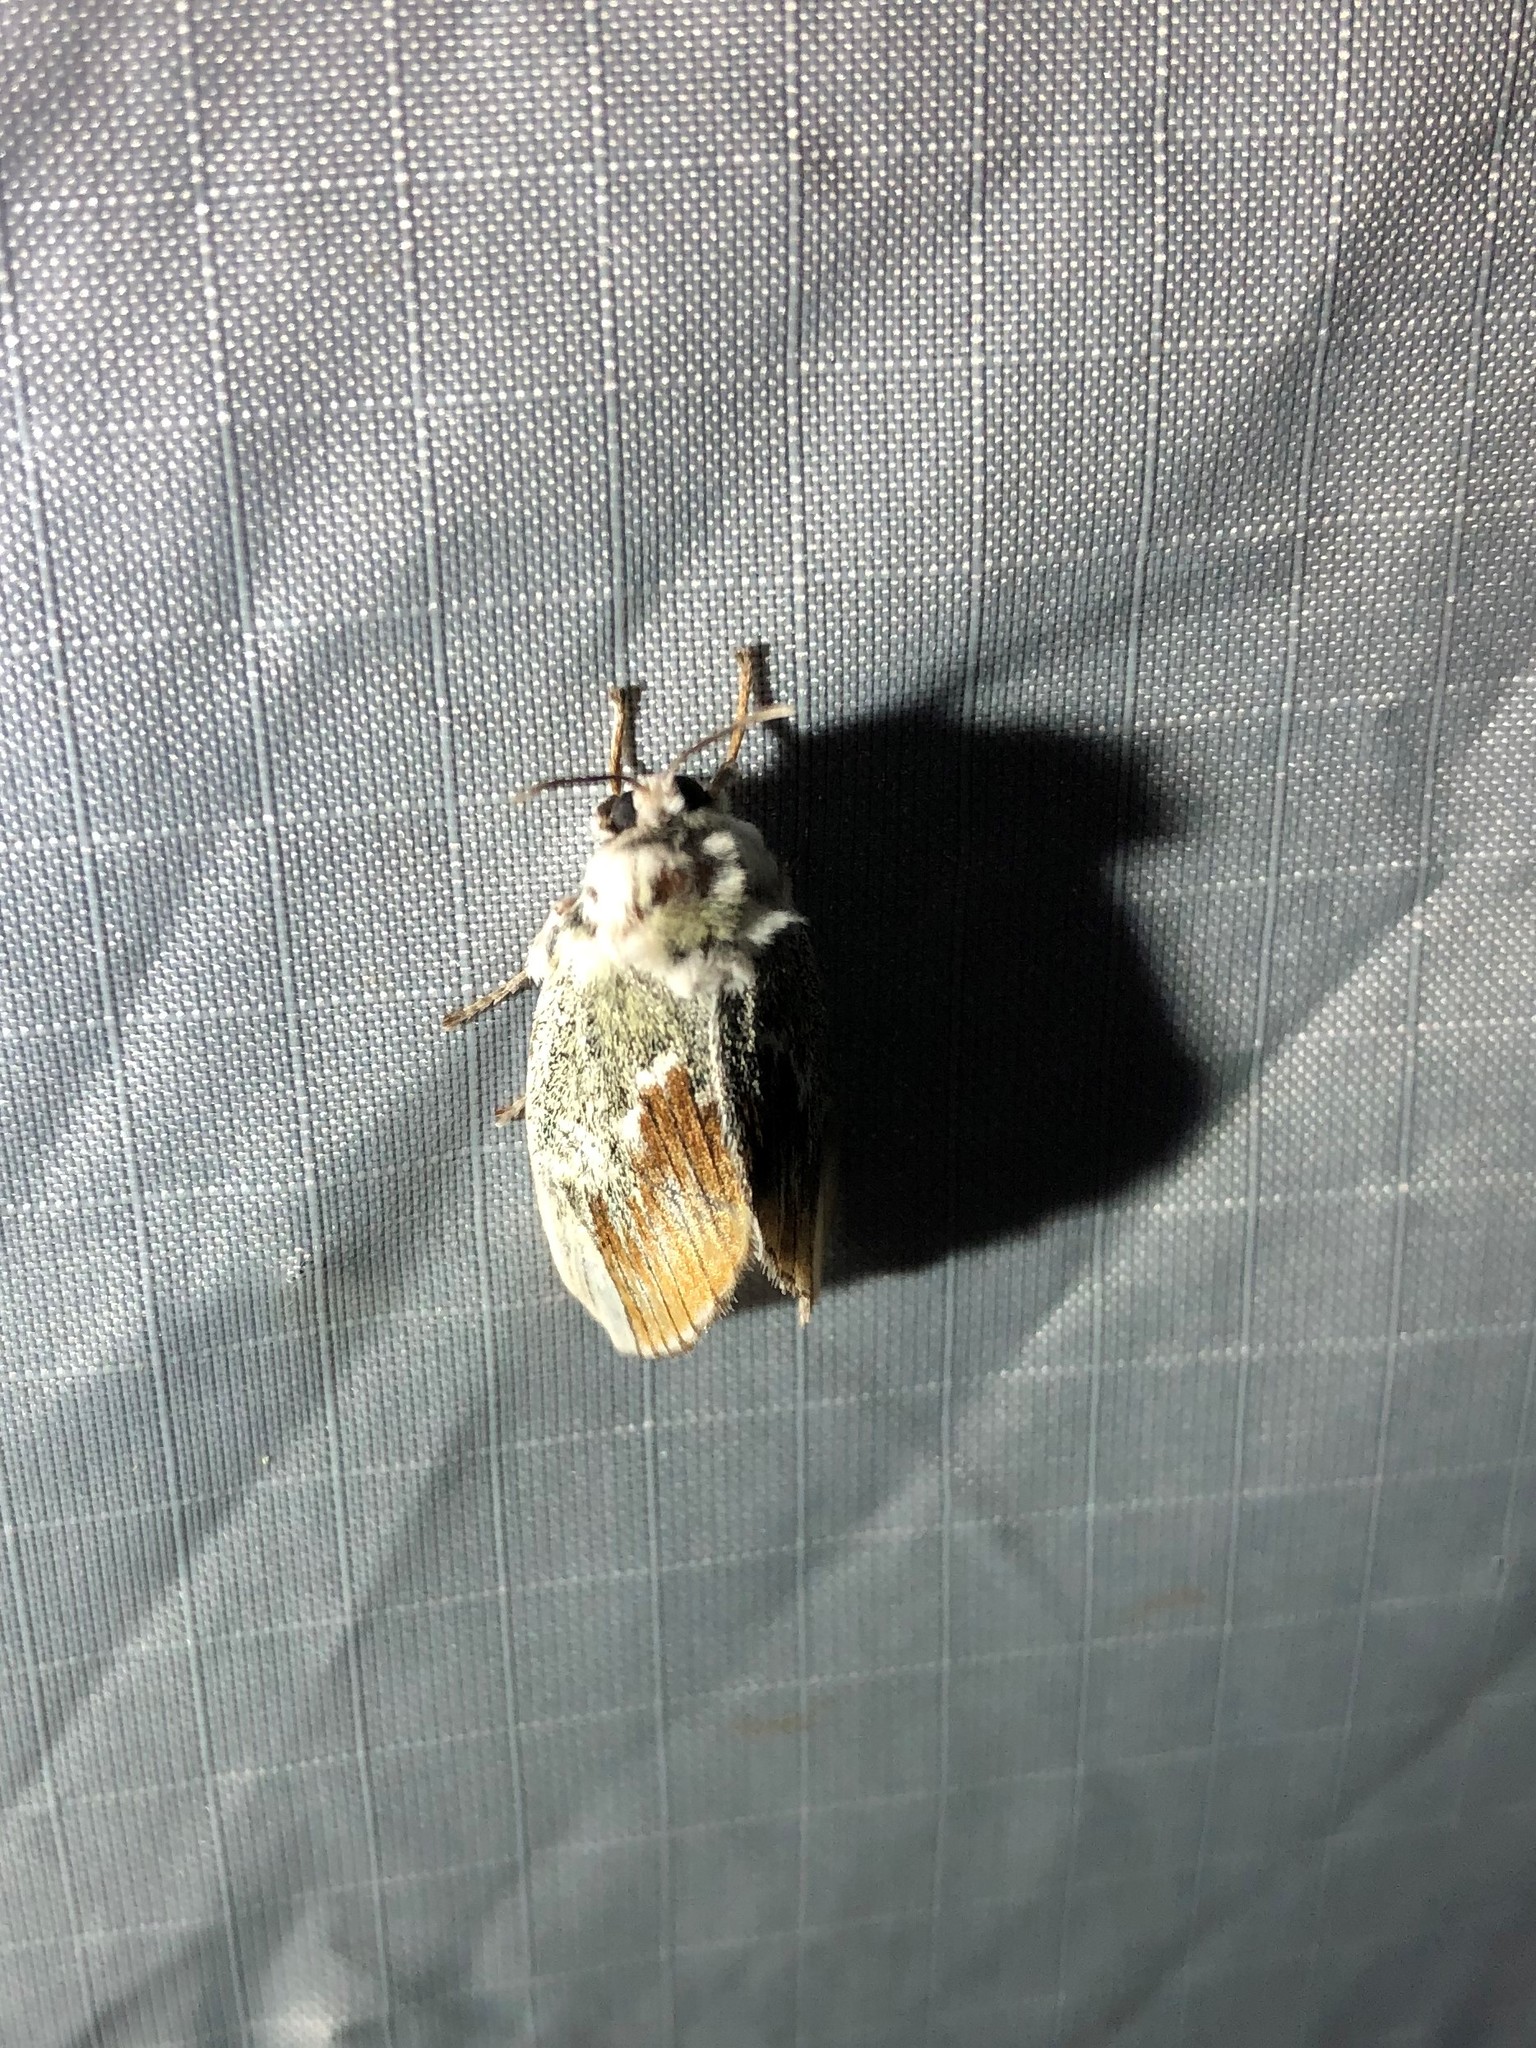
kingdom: Animalia
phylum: Arthropoda
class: Insecta
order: Lepidoptera
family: Megalopygidae
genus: Mesoscia
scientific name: Mesoscia terminata
